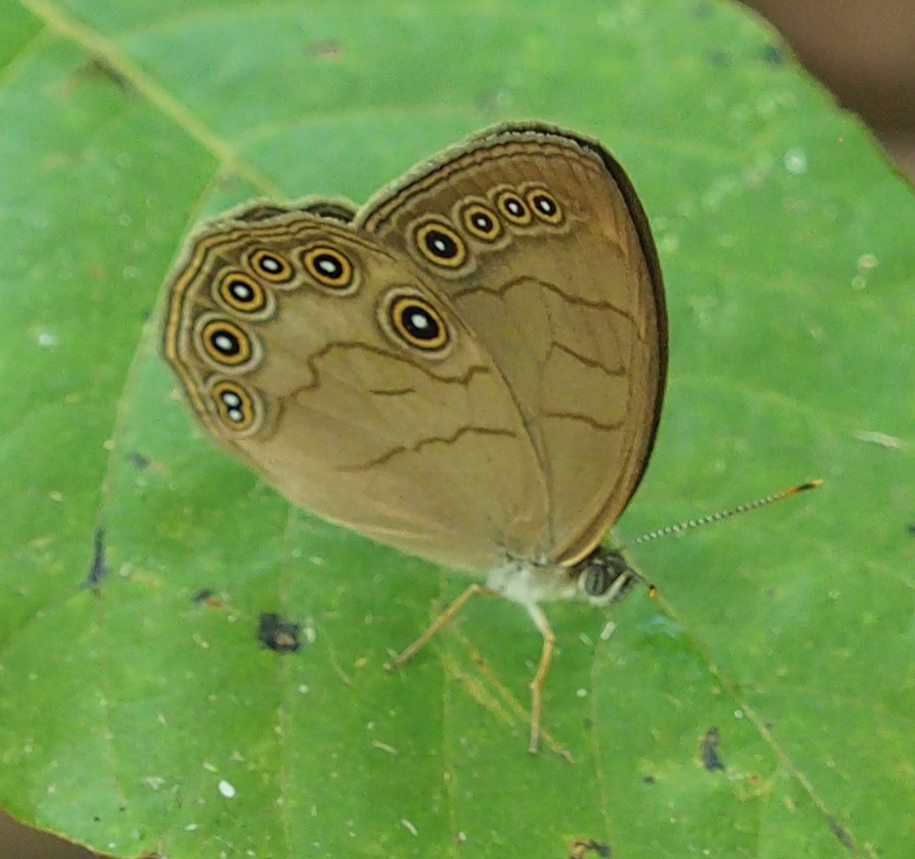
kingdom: Animalia
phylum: Arthropoda
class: Insecta
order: Lepidoptera
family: Nymphalidae
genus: Lethe
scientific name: Lethe eurydice
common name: Eyed brown
